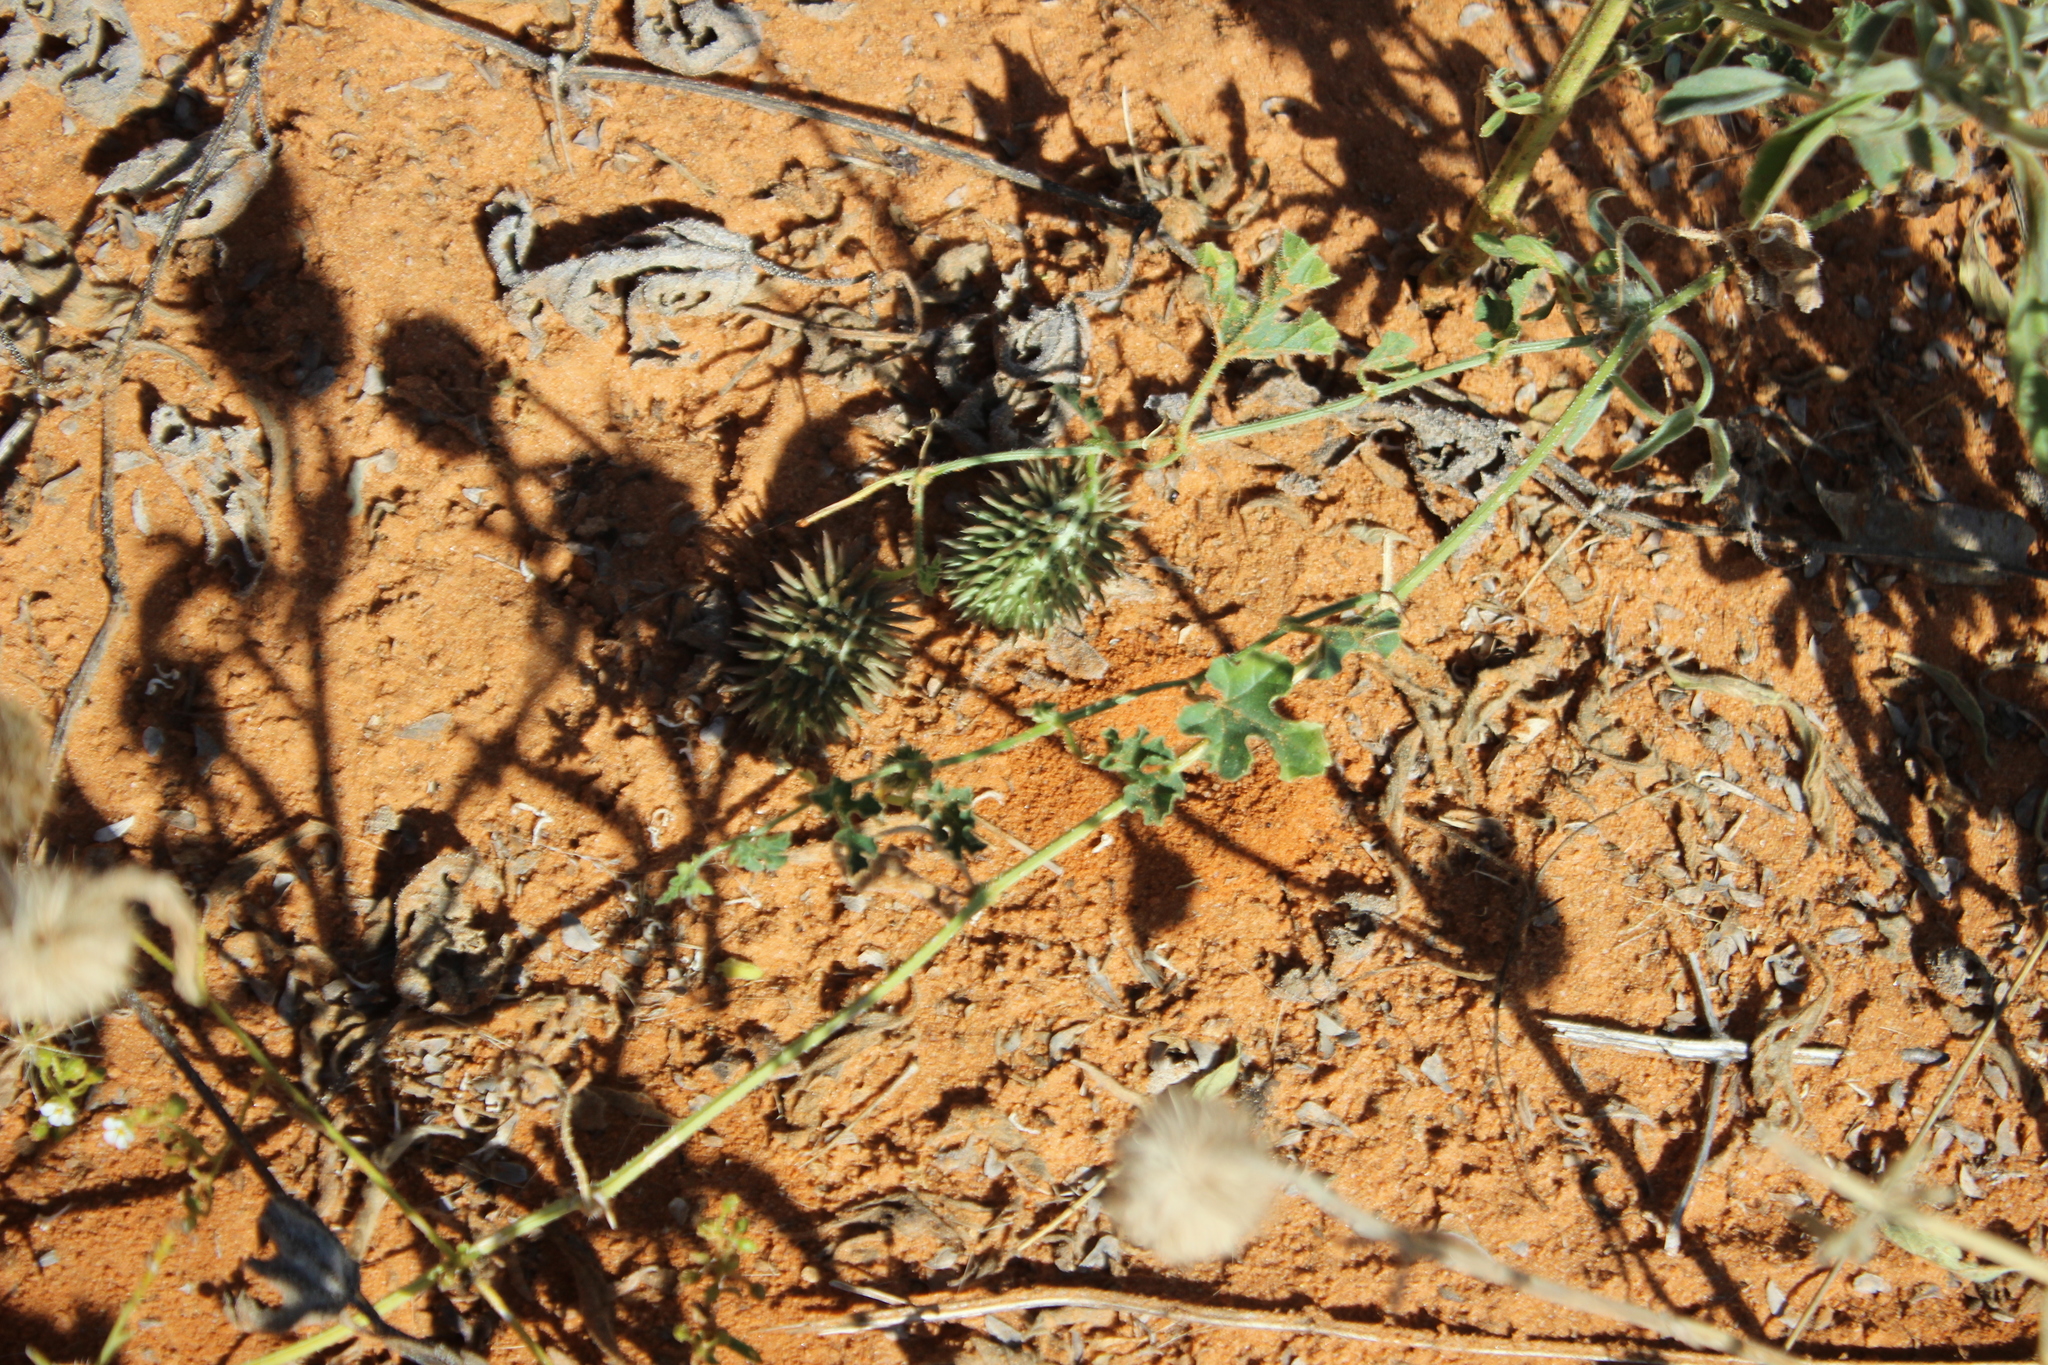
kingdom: Plantae
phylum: Tracheophyta
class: Magnoliopsida
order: Cucurbitales
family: Cucurbitaceae
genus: Cucumis
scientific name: Cucumis africanus
